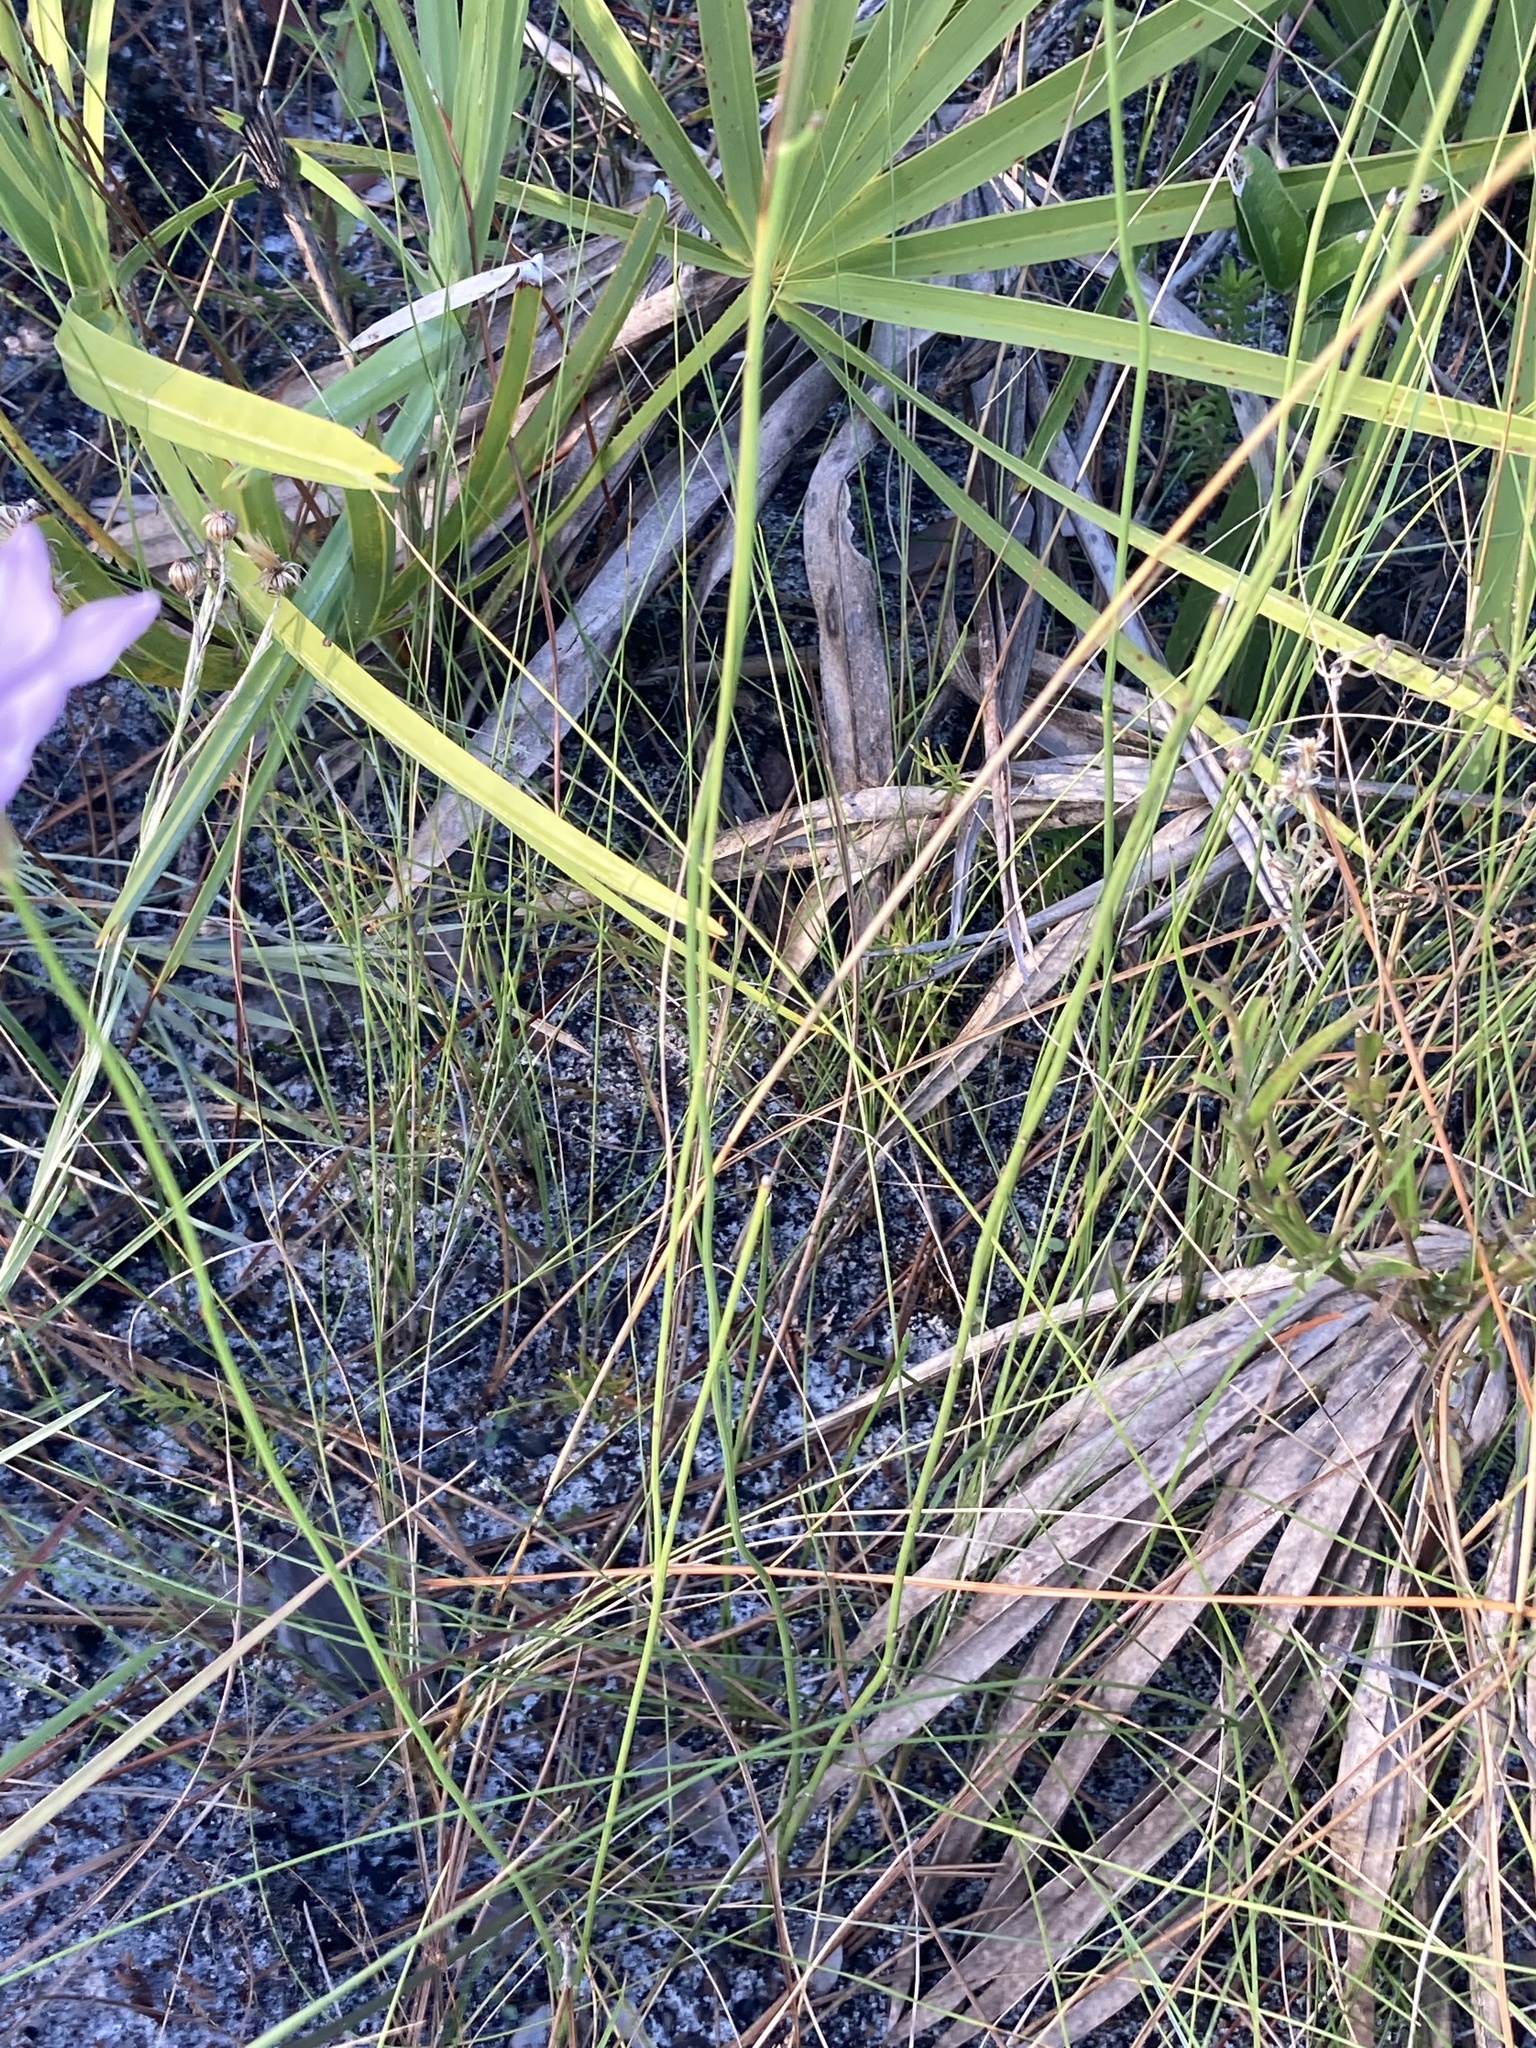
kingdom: Plantae
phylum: Tracheophyta
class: Magnoliopsida
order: Asterales
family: Asteraceae
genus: Lygodesmia
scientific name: Lygodesmia aphylla
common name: Rose-rush
